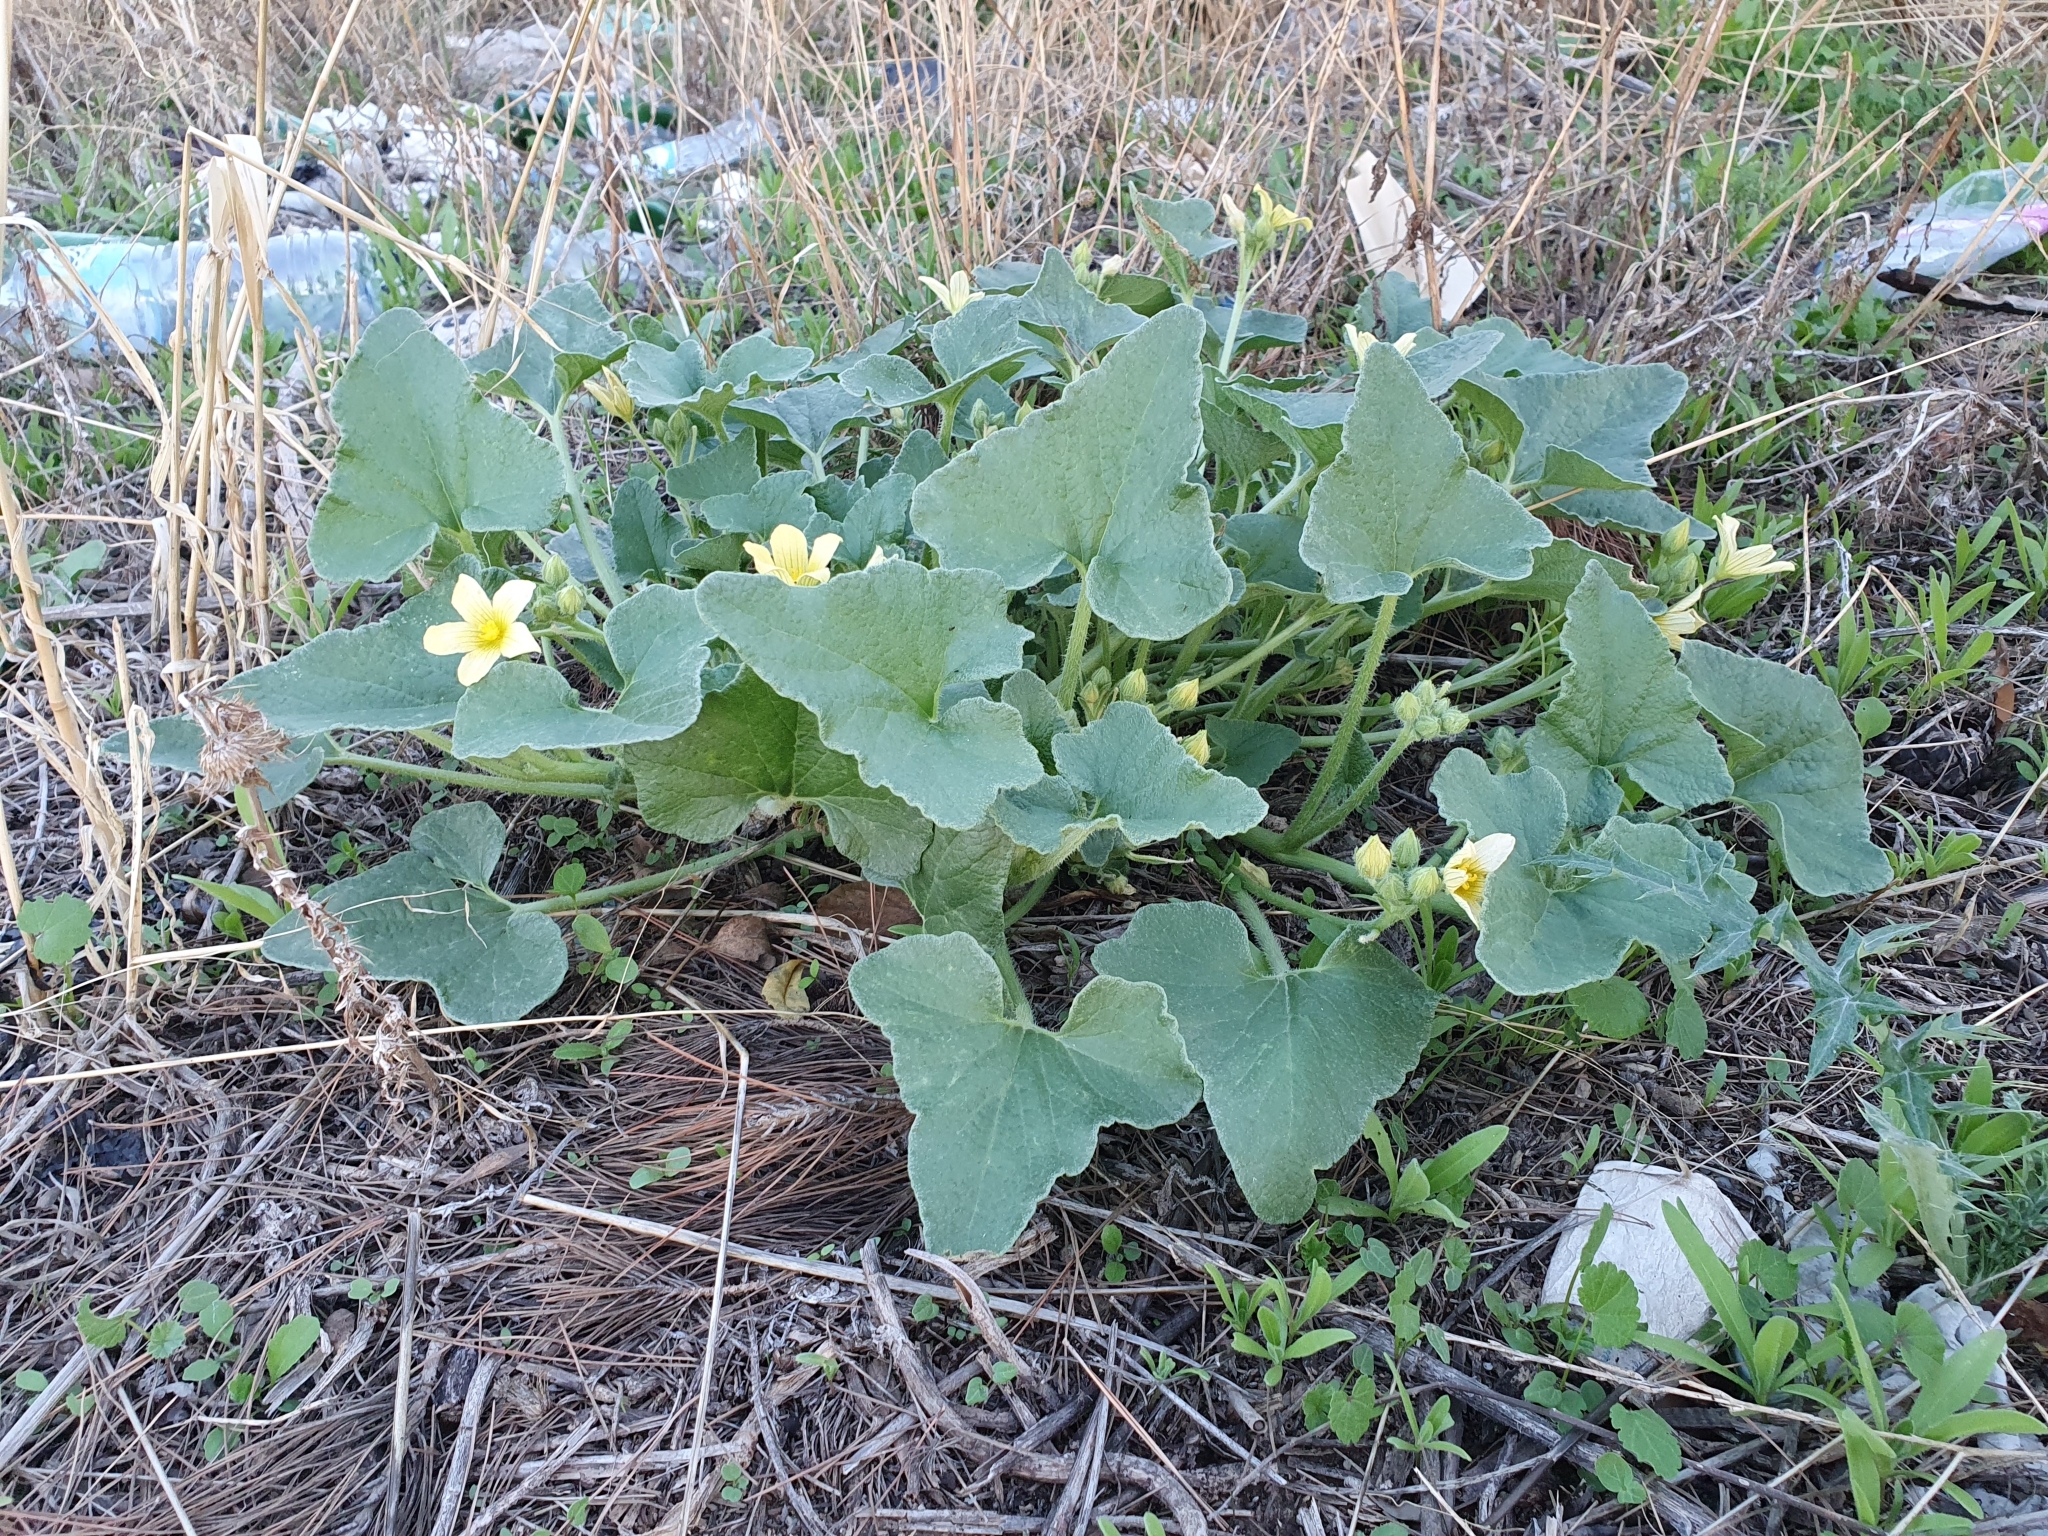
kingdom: Plantae
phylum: Tracheophyta
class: Magnoliopsida
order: Cucurbitales
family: Cucurbitaceae
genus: Ecballium
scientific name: Ecballium elaterium
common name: Squirting cucumber
